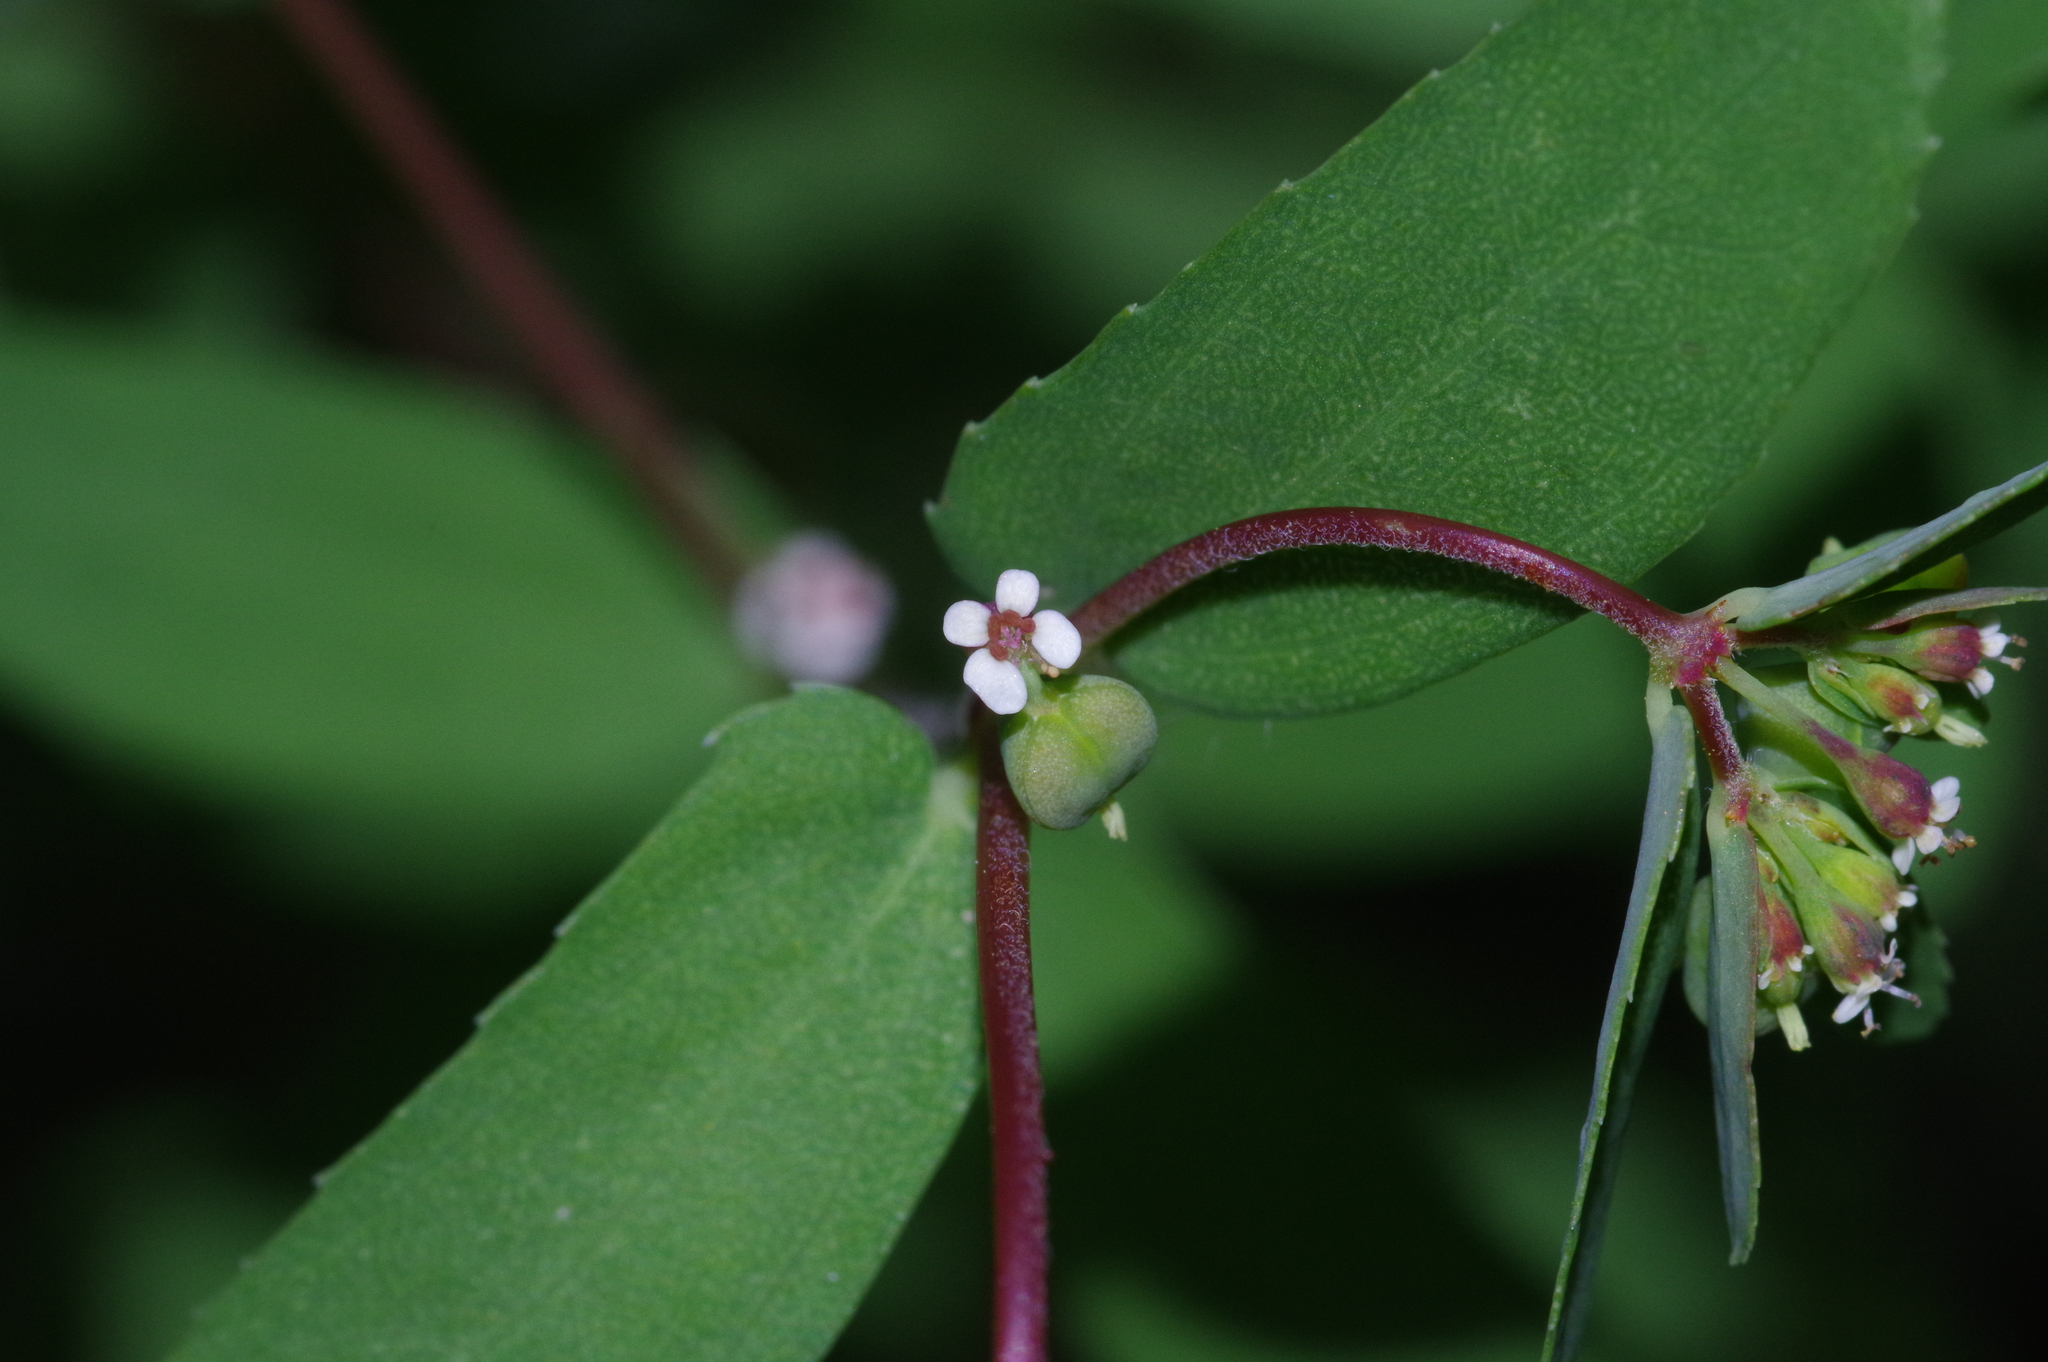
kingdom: Plantae
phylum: Tracheophyta
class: Magnoliopsida
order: Malpighiales
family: Euphorbiaceae
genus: Euphorbia
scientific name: Euphorbia nutans
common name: Eyebane
